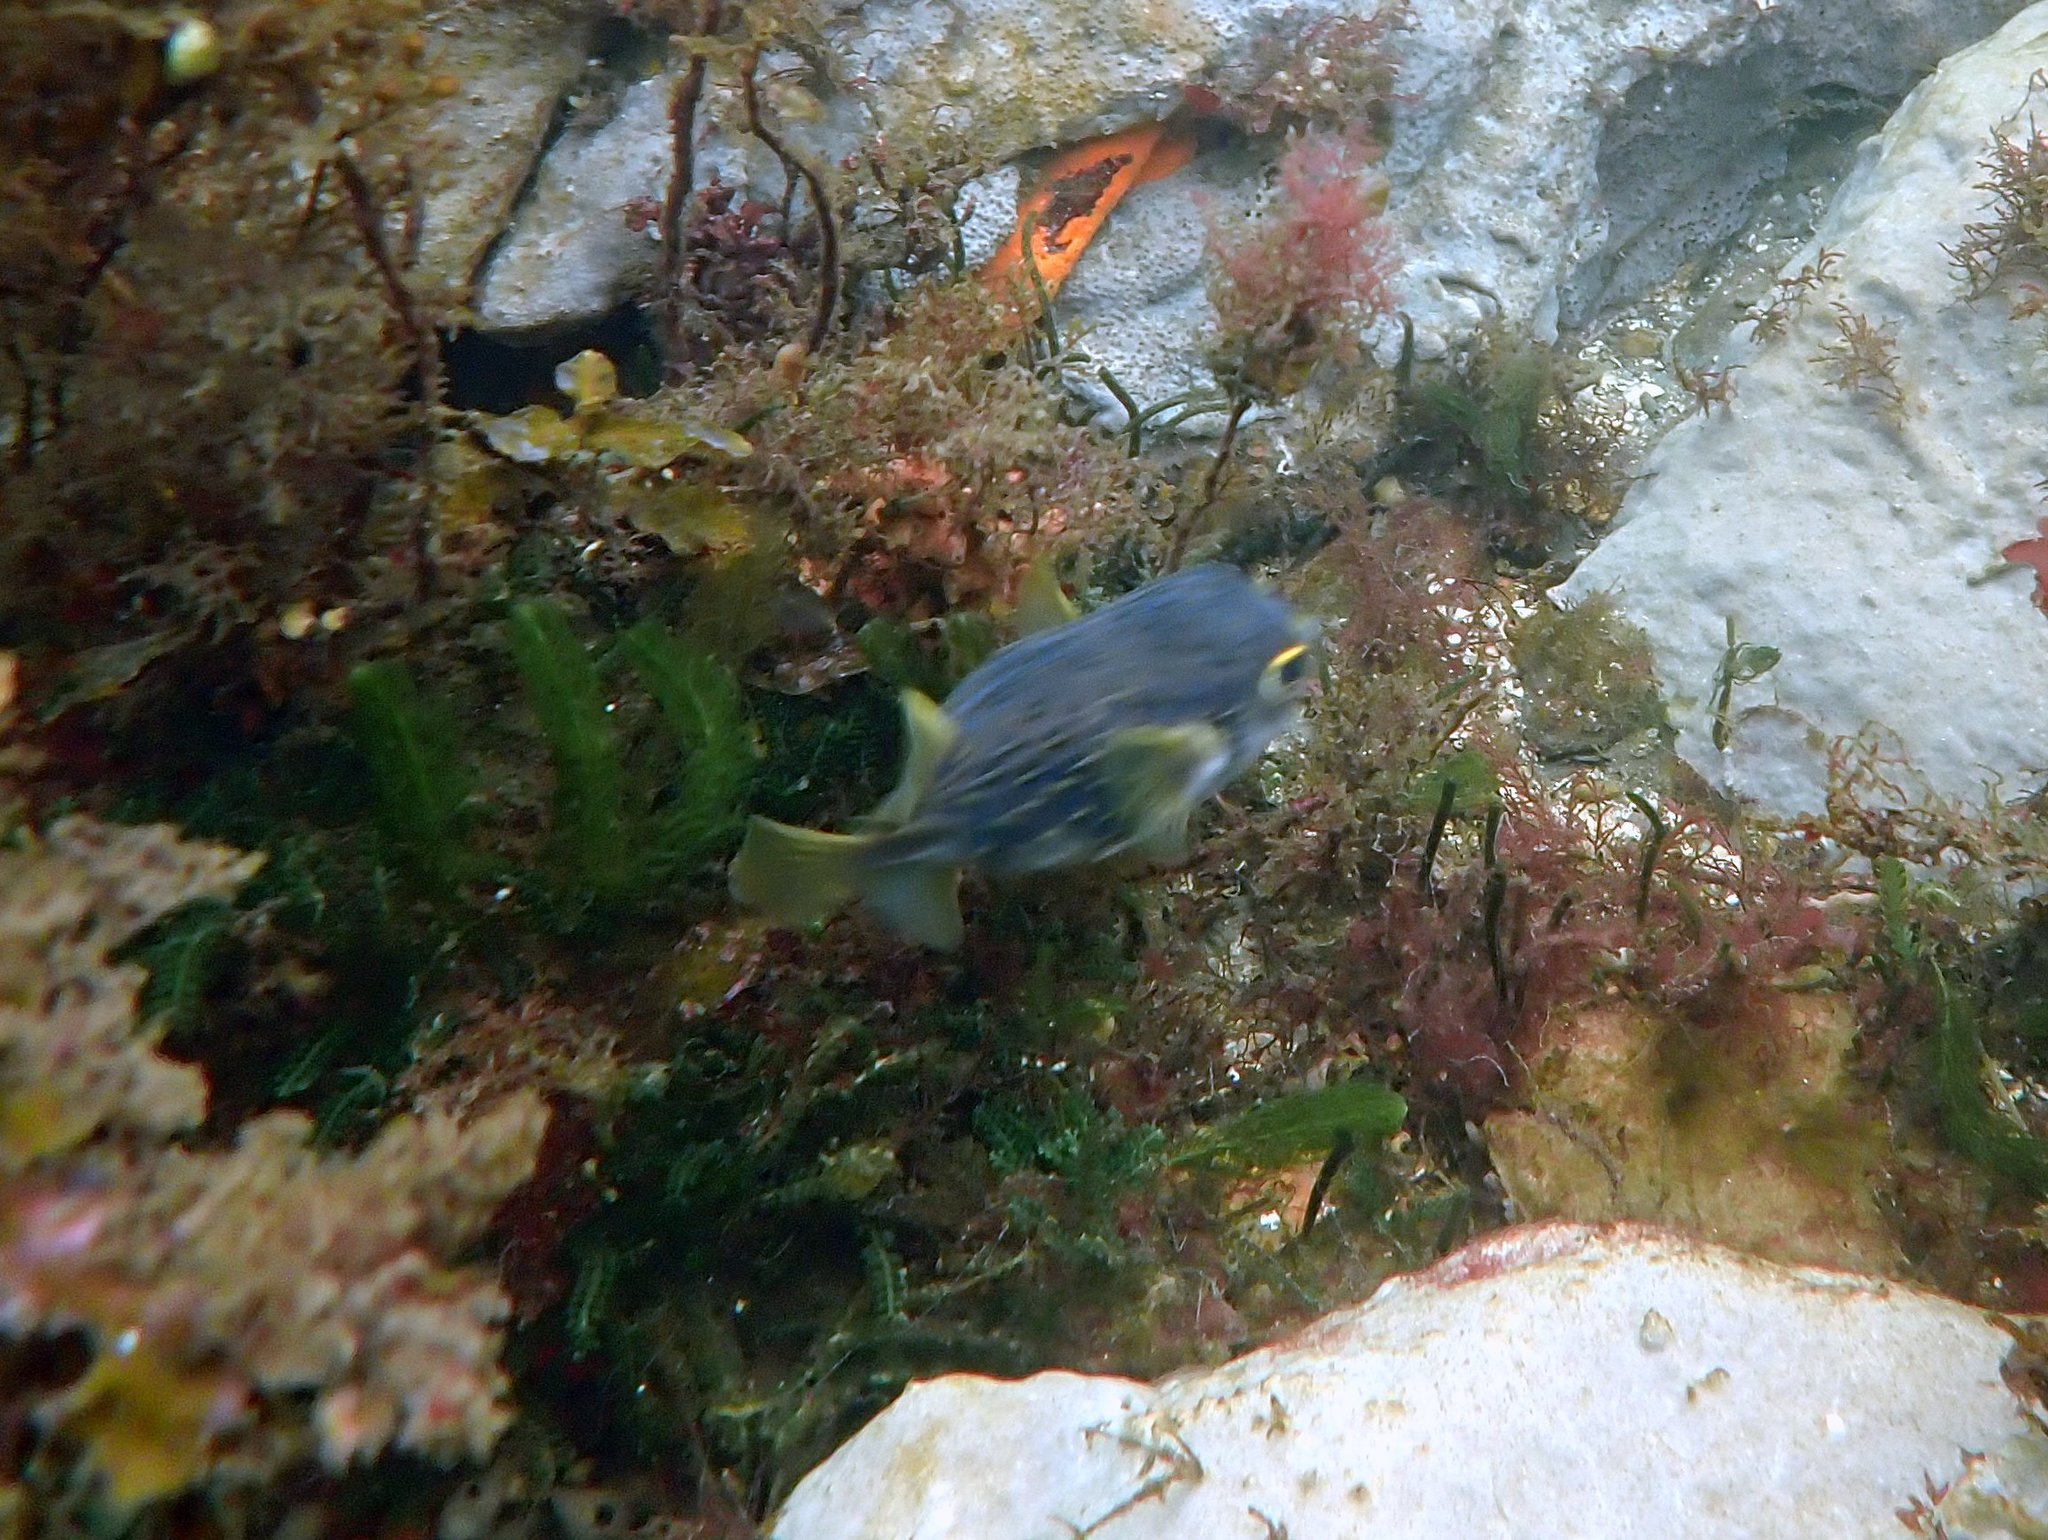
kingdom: Animalia
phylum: Chordata
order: Tetraodontiformes
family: Diodontidae
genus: Diodon
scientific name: Diodon nicthemerus
